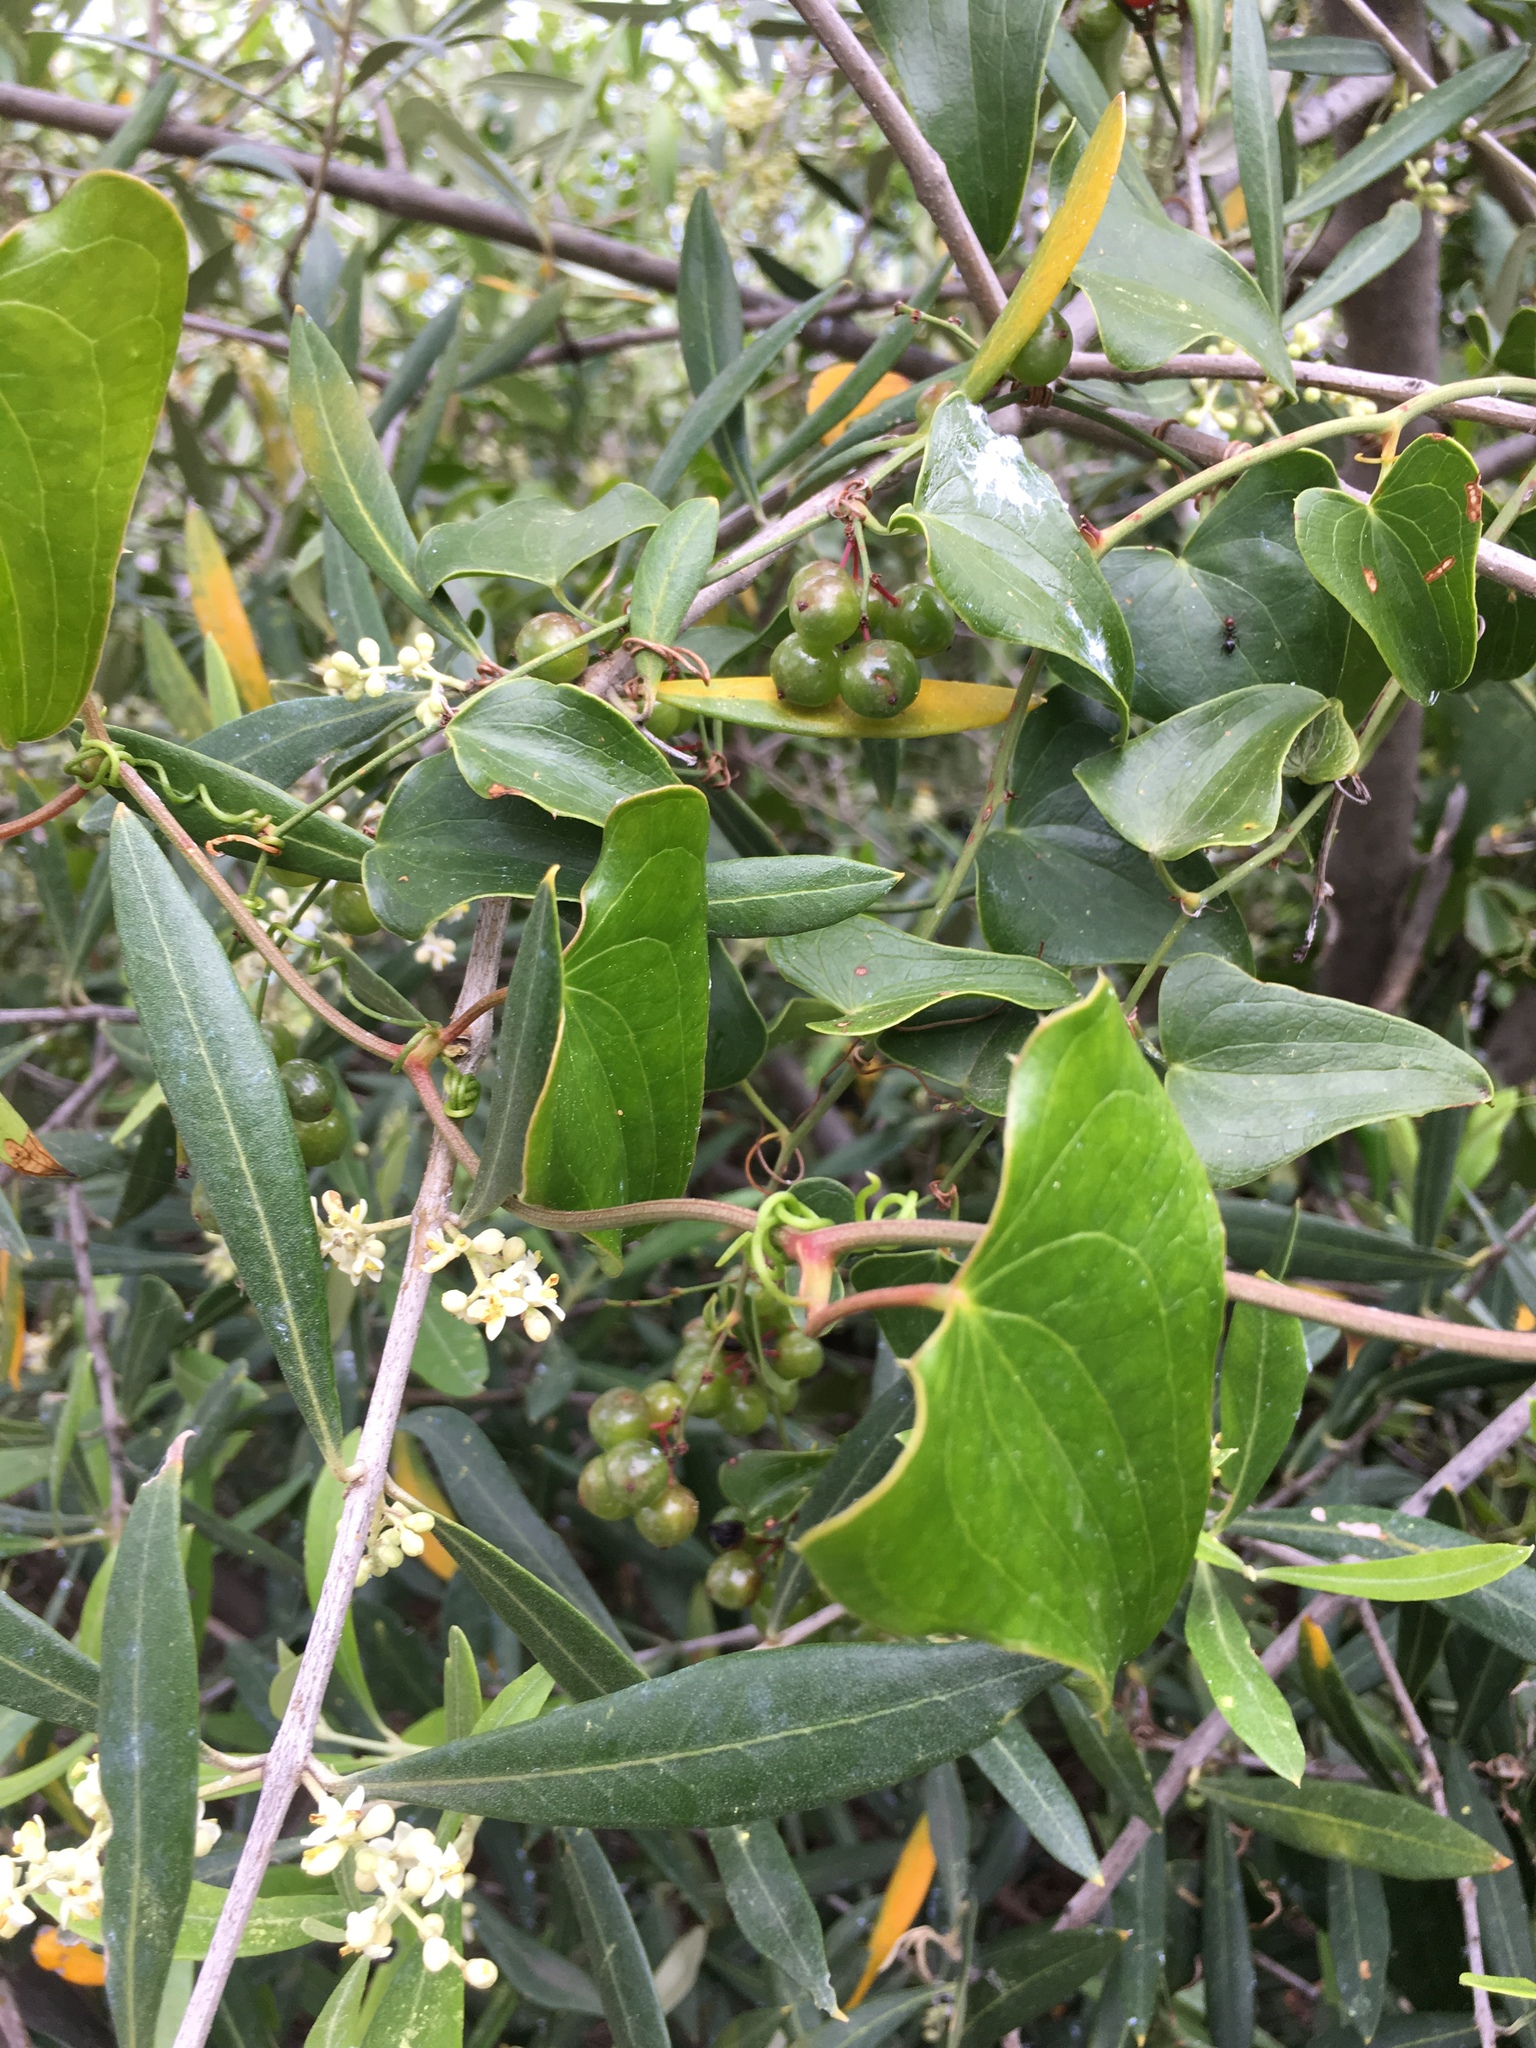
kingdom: Plantae
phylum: Tracheophyta
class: Liliopsida
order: Liliales
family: Smilacaceae
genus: Smilax
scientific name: Smilax aspera
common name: Common smilax
